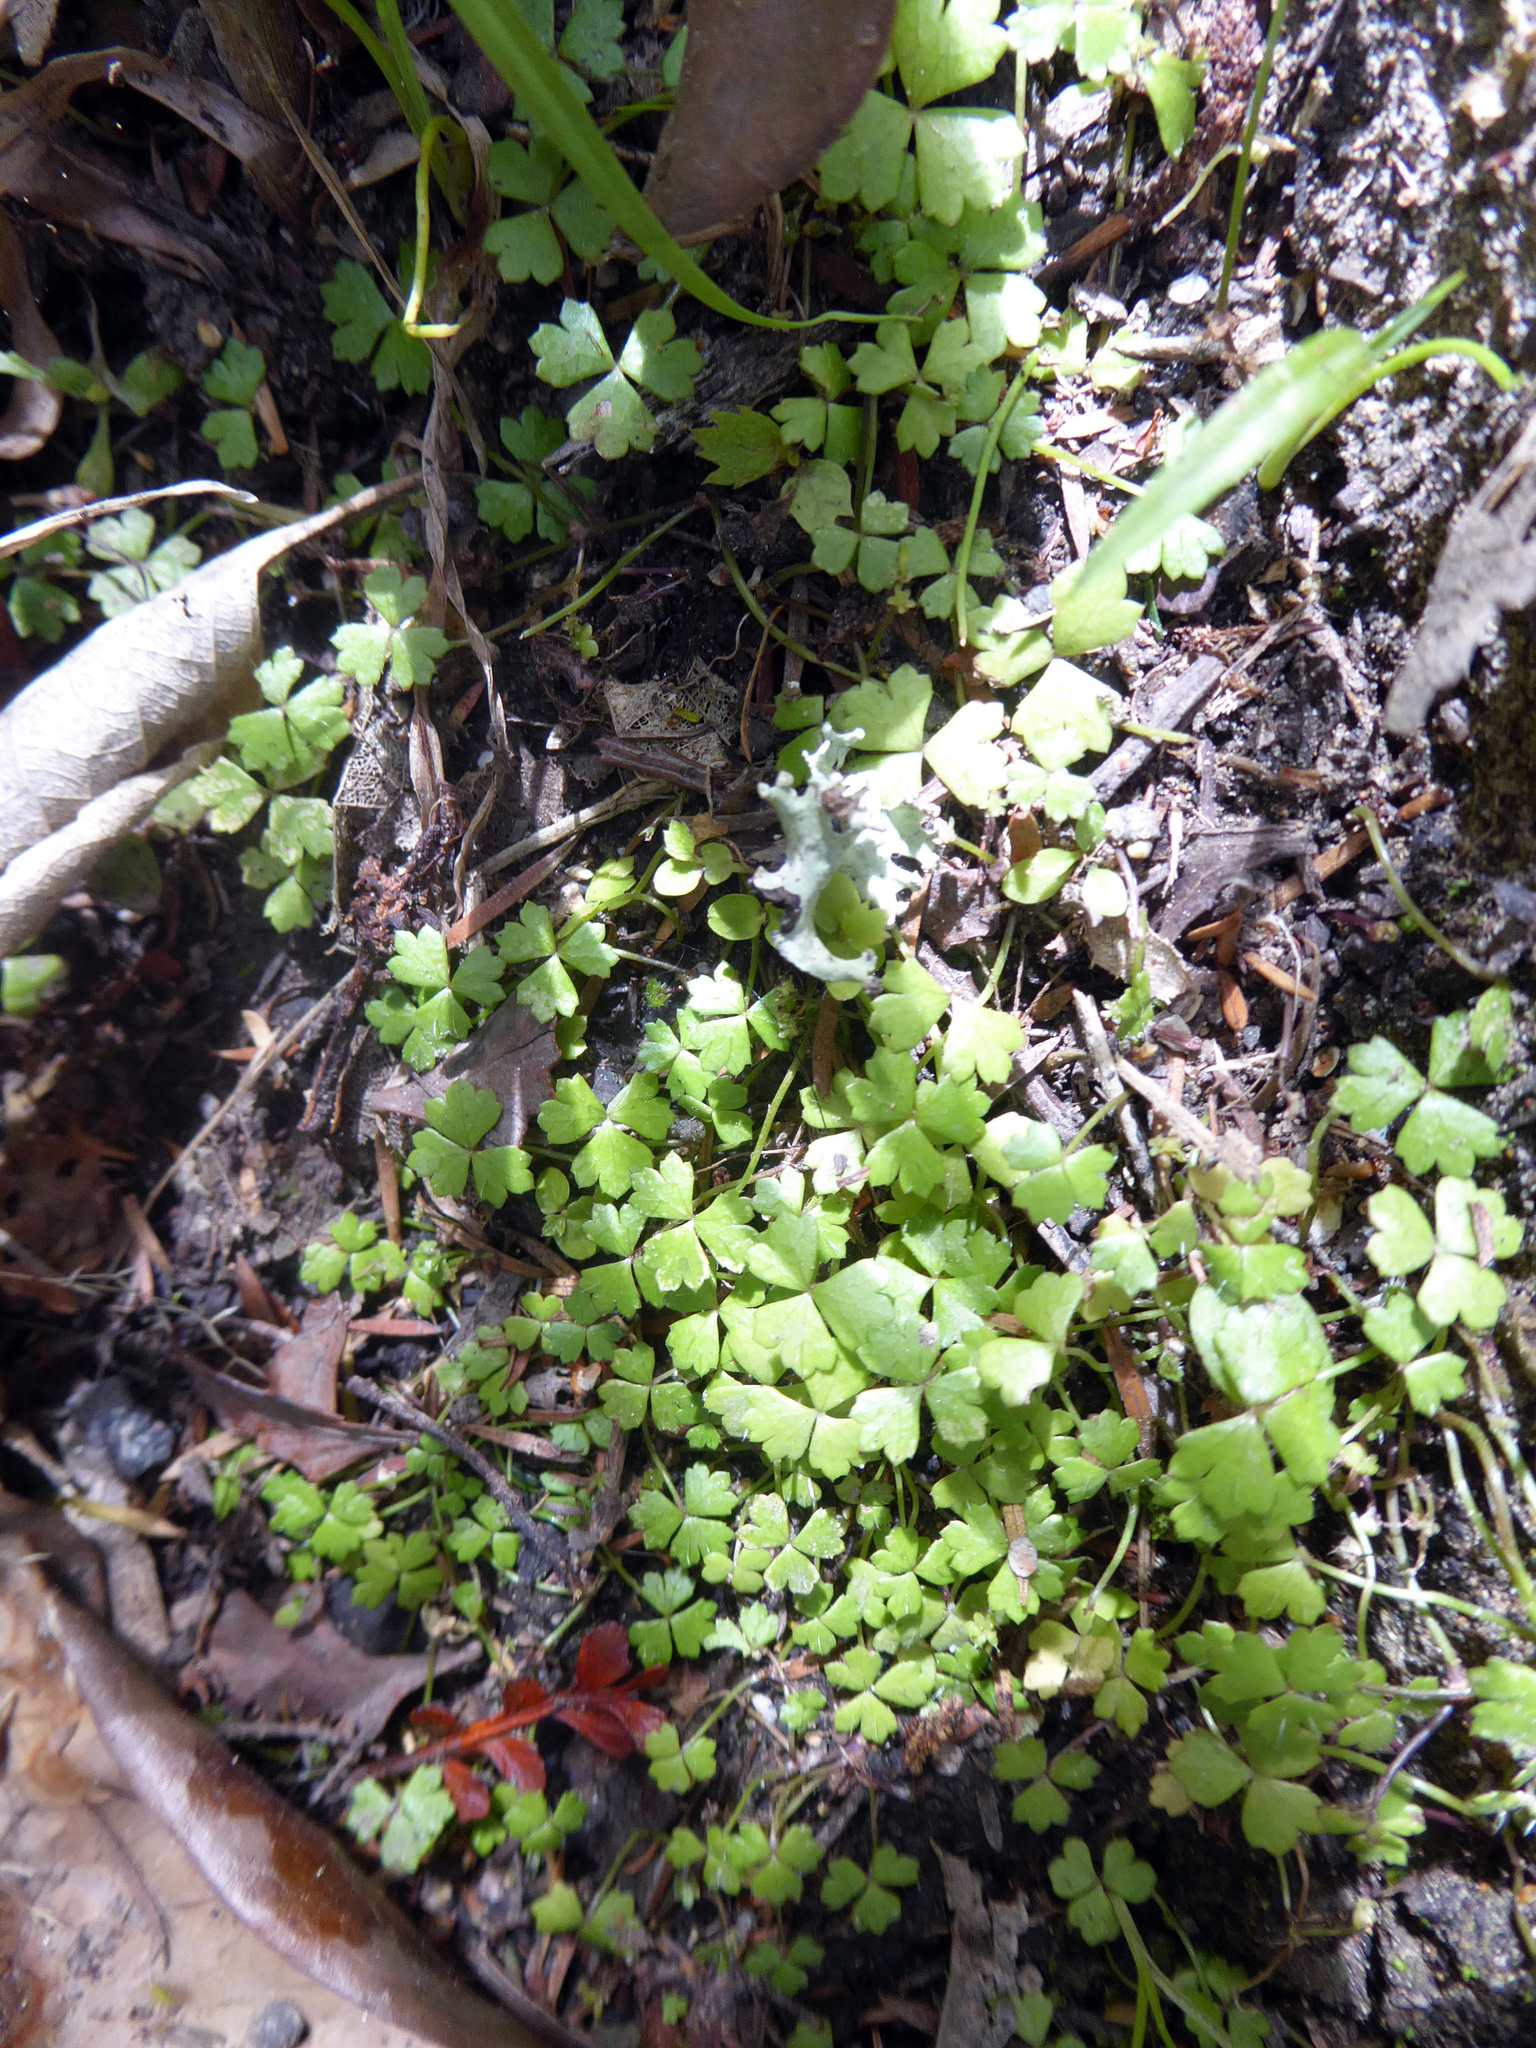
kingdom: Plantae
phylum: Tracheophyta
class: Magnoliopsida
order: Apiales
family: Araliaceae
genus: Hydrocotyle
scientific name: Hydrocotyle tripartita
